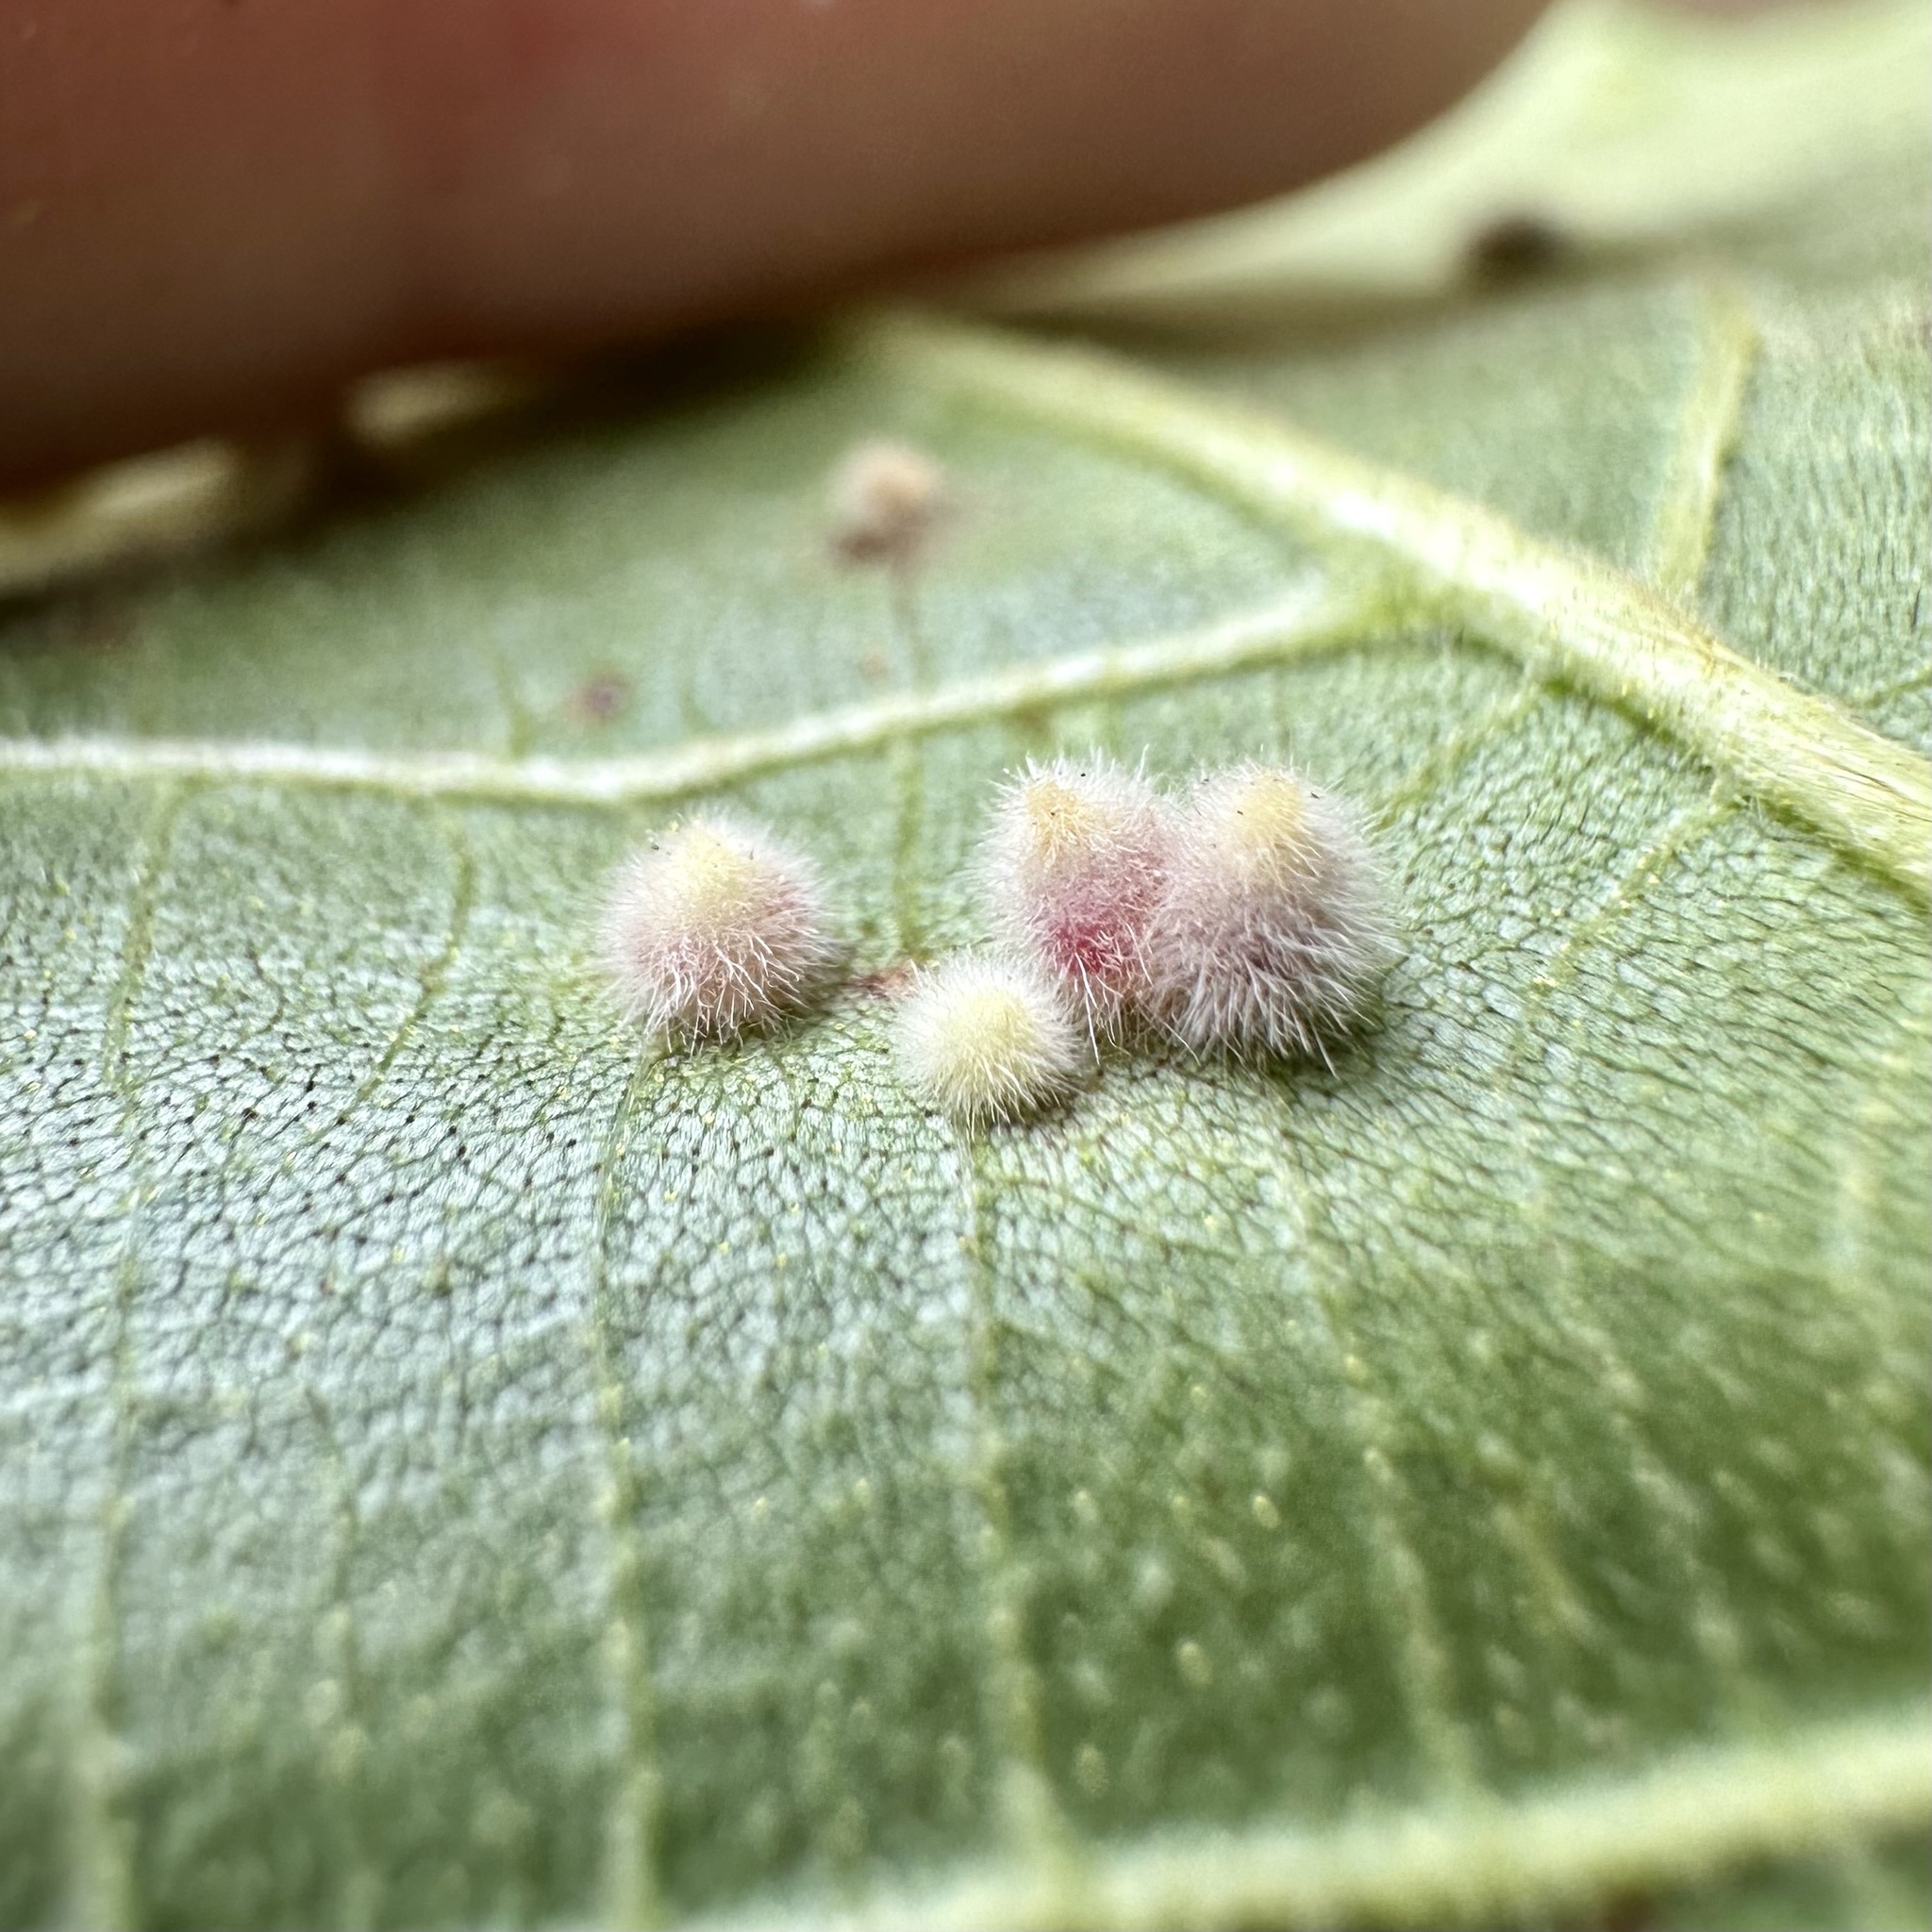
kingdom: Animalia
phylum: Arthropoda
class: Insecta
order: Diptera
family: Cecidomyiidae
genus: Caryomyia
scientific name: Caryomyia purpurea
